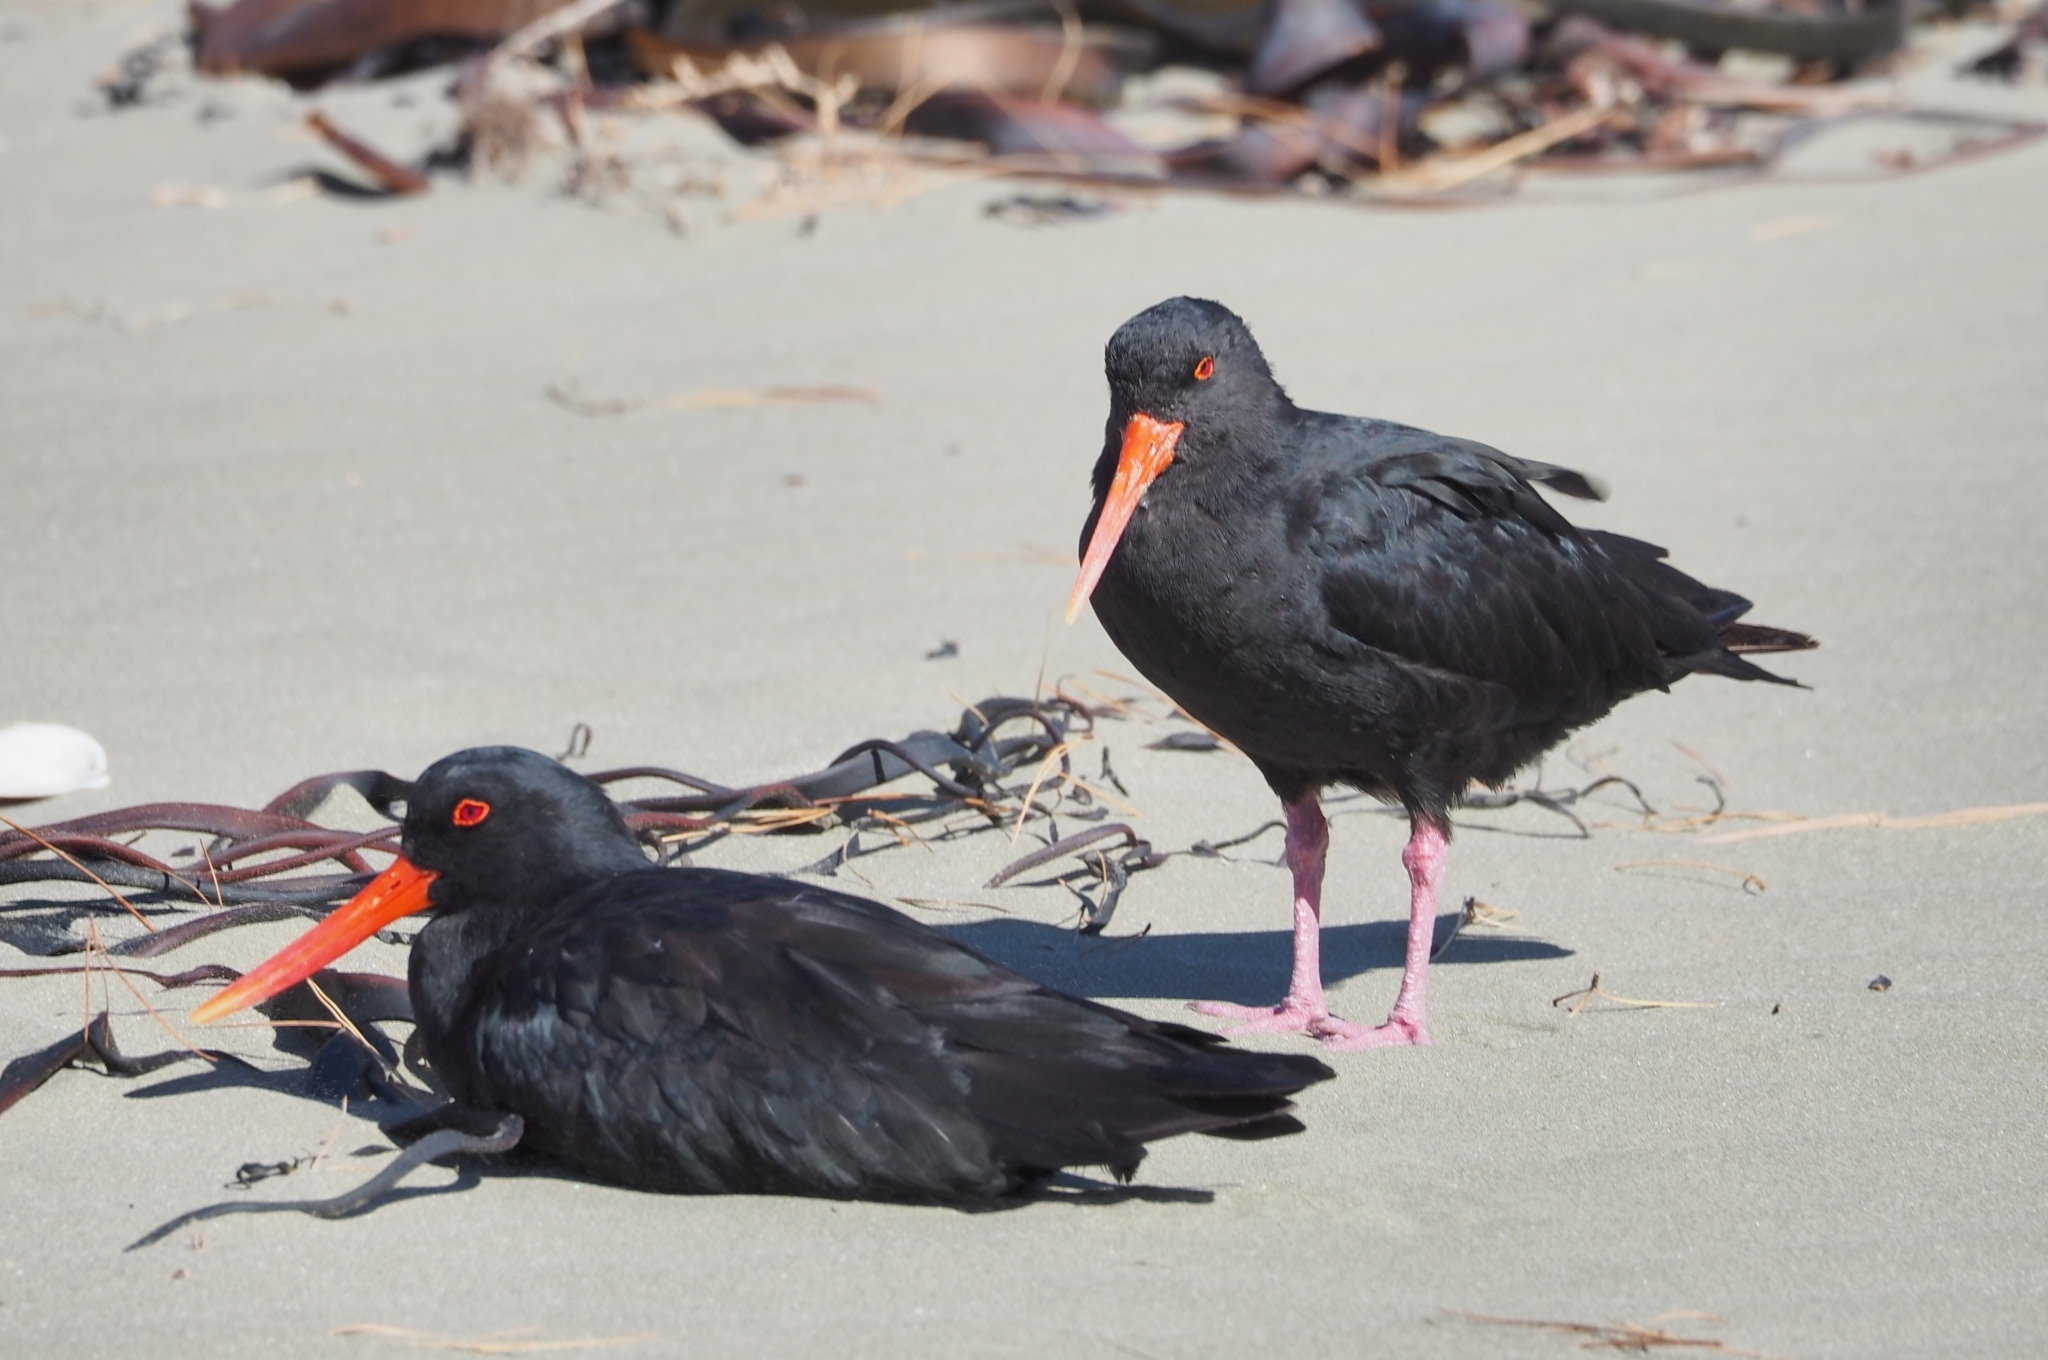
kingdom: Animalia
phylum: Chordata
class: Aves
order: Charadriiformes
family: Haematopodidae
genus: Haematopus
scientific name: Haematopus unicolor
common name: Variable oystercatcher
